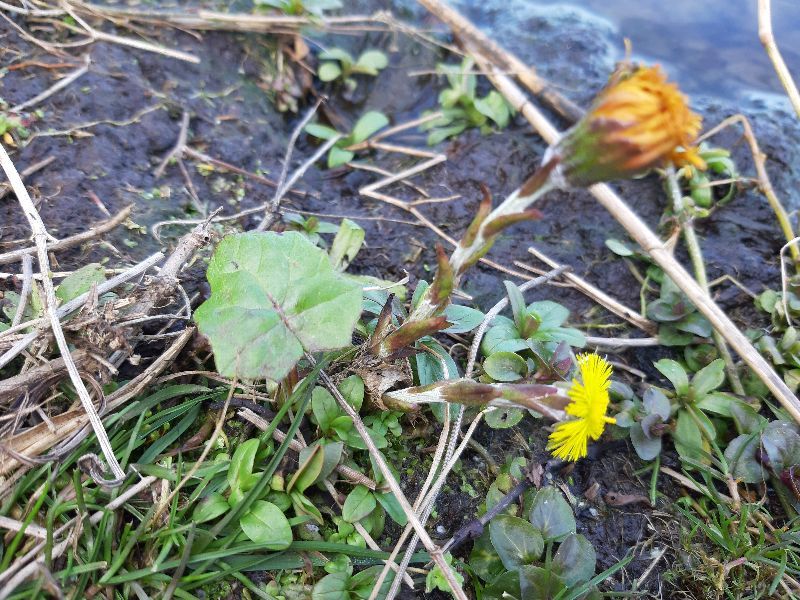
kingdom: Plantae
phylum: Tracheophyta
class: Magnoliopsida
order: Asterales
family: Asteraceae
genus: Tussilago
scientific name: Tussilago farfara
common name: Coltsfoot
